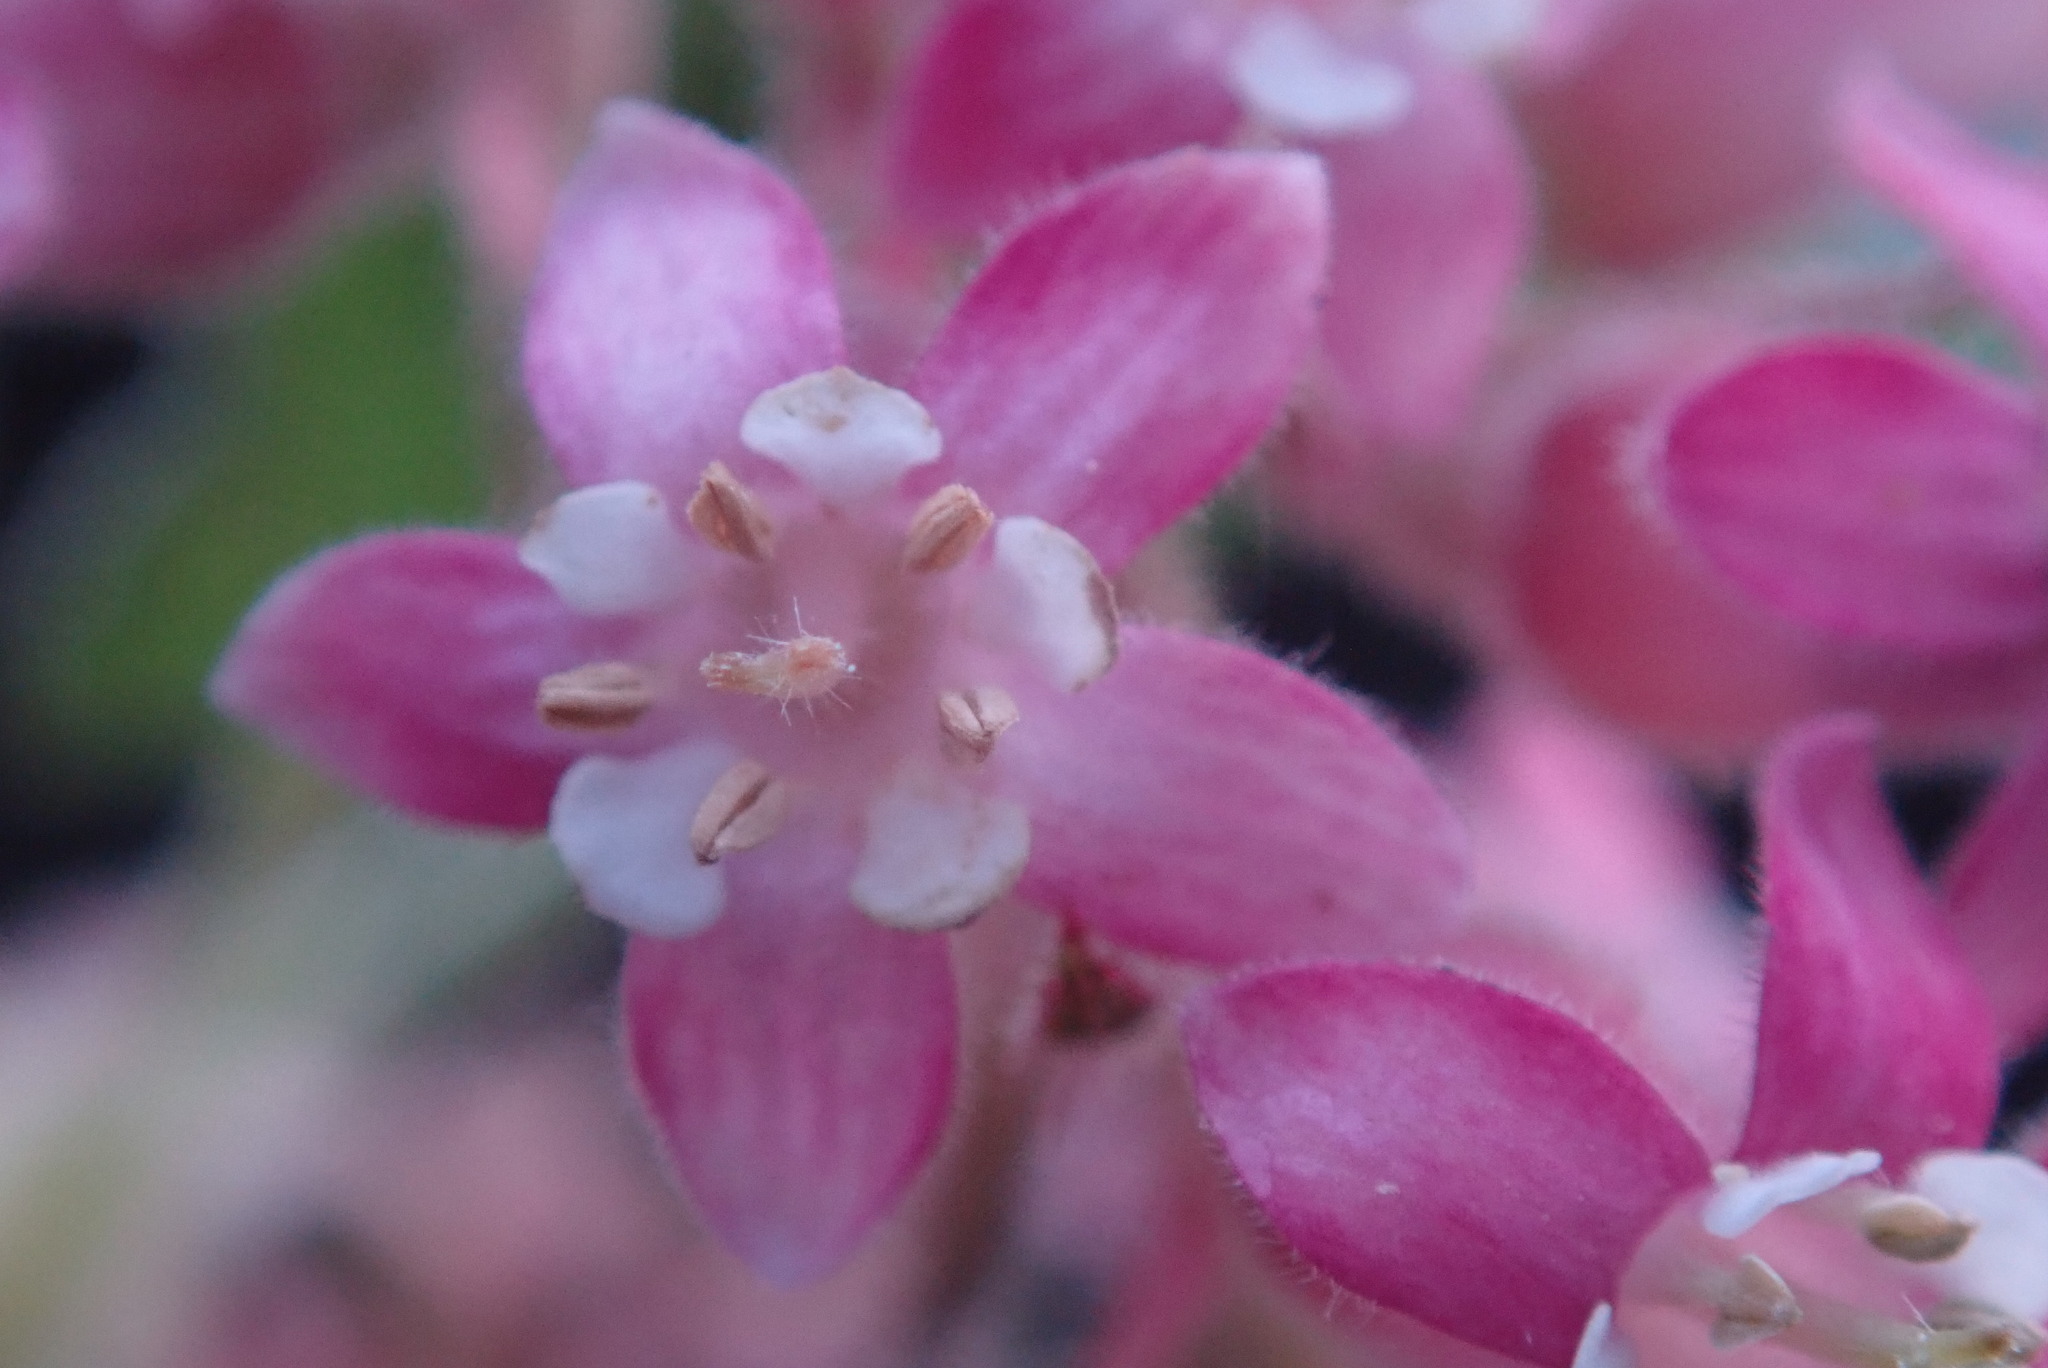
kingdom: Plantae
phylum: Tracheophyta
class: Magnoliopsida
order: Saxifragales
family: Grossulariaceae
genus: Ribes
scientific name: Ribes malvaceum
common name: Chaparral currant
